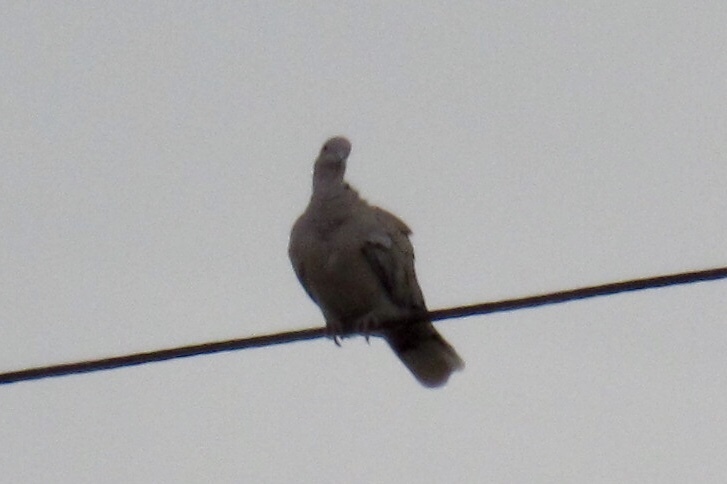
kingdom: Animalia
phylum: Chordata
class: Aves
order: Columbiformes
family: Columbidae
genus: Streptopelia
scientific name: Streptopelia decaocto
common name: Eurasian collared dove
